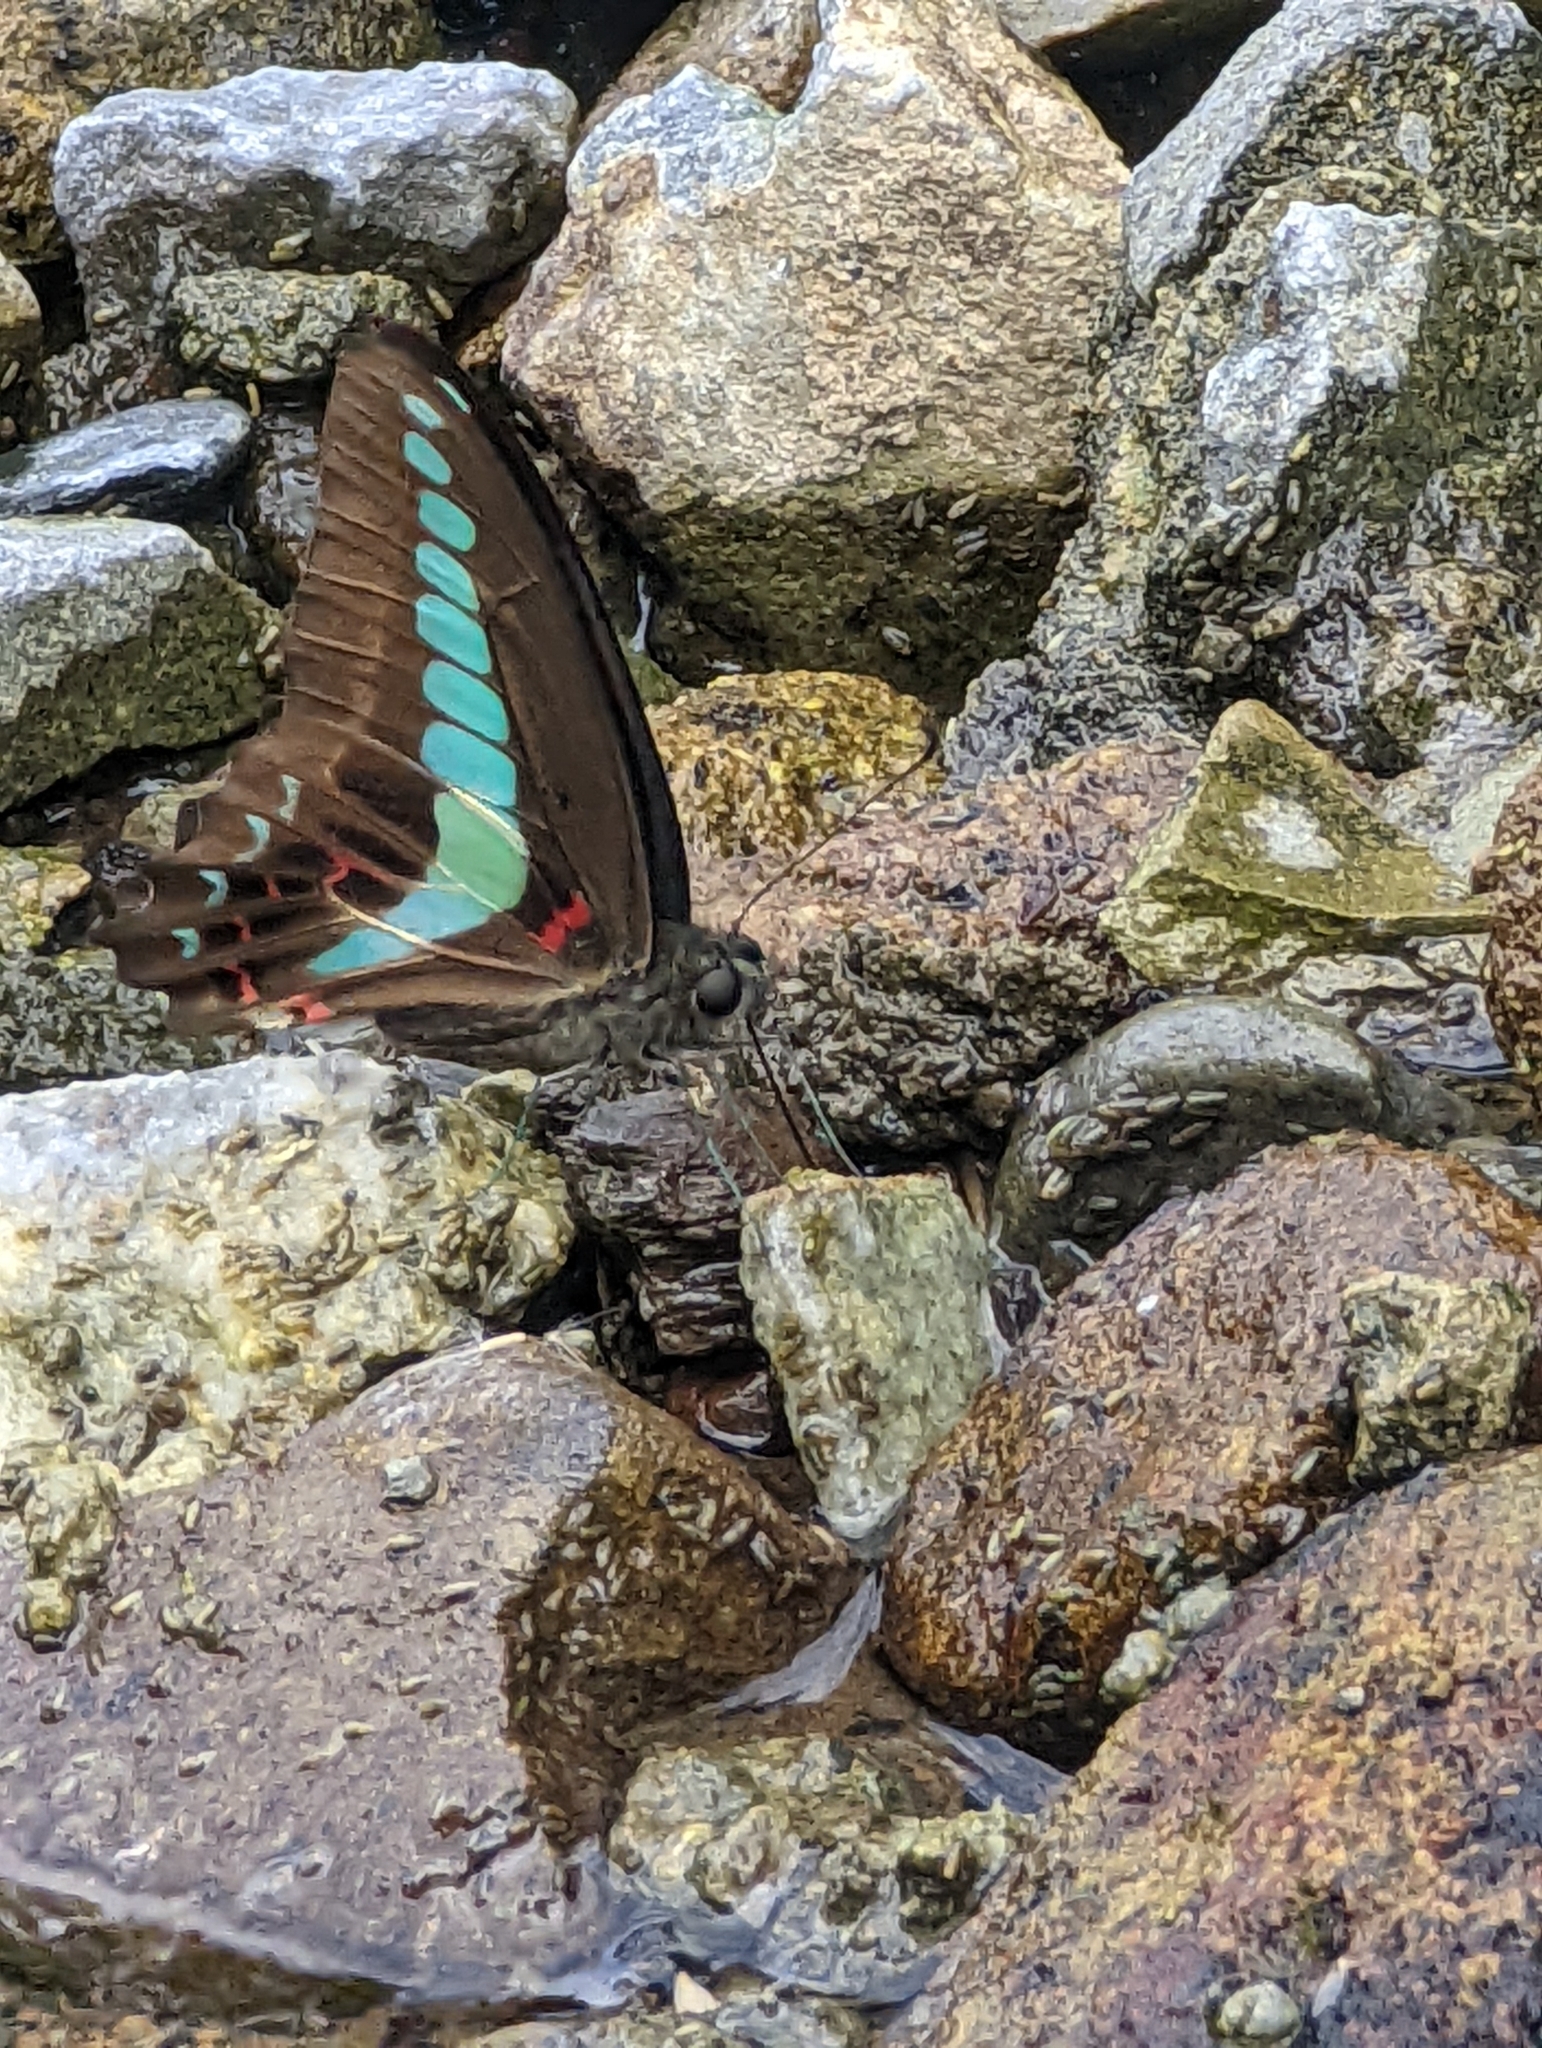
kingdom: Fungi
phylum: Ascomycota
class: Sordariomycetes
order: Microascales
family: Microascaceae
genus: Graphium
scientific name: Graphium sarpedon
